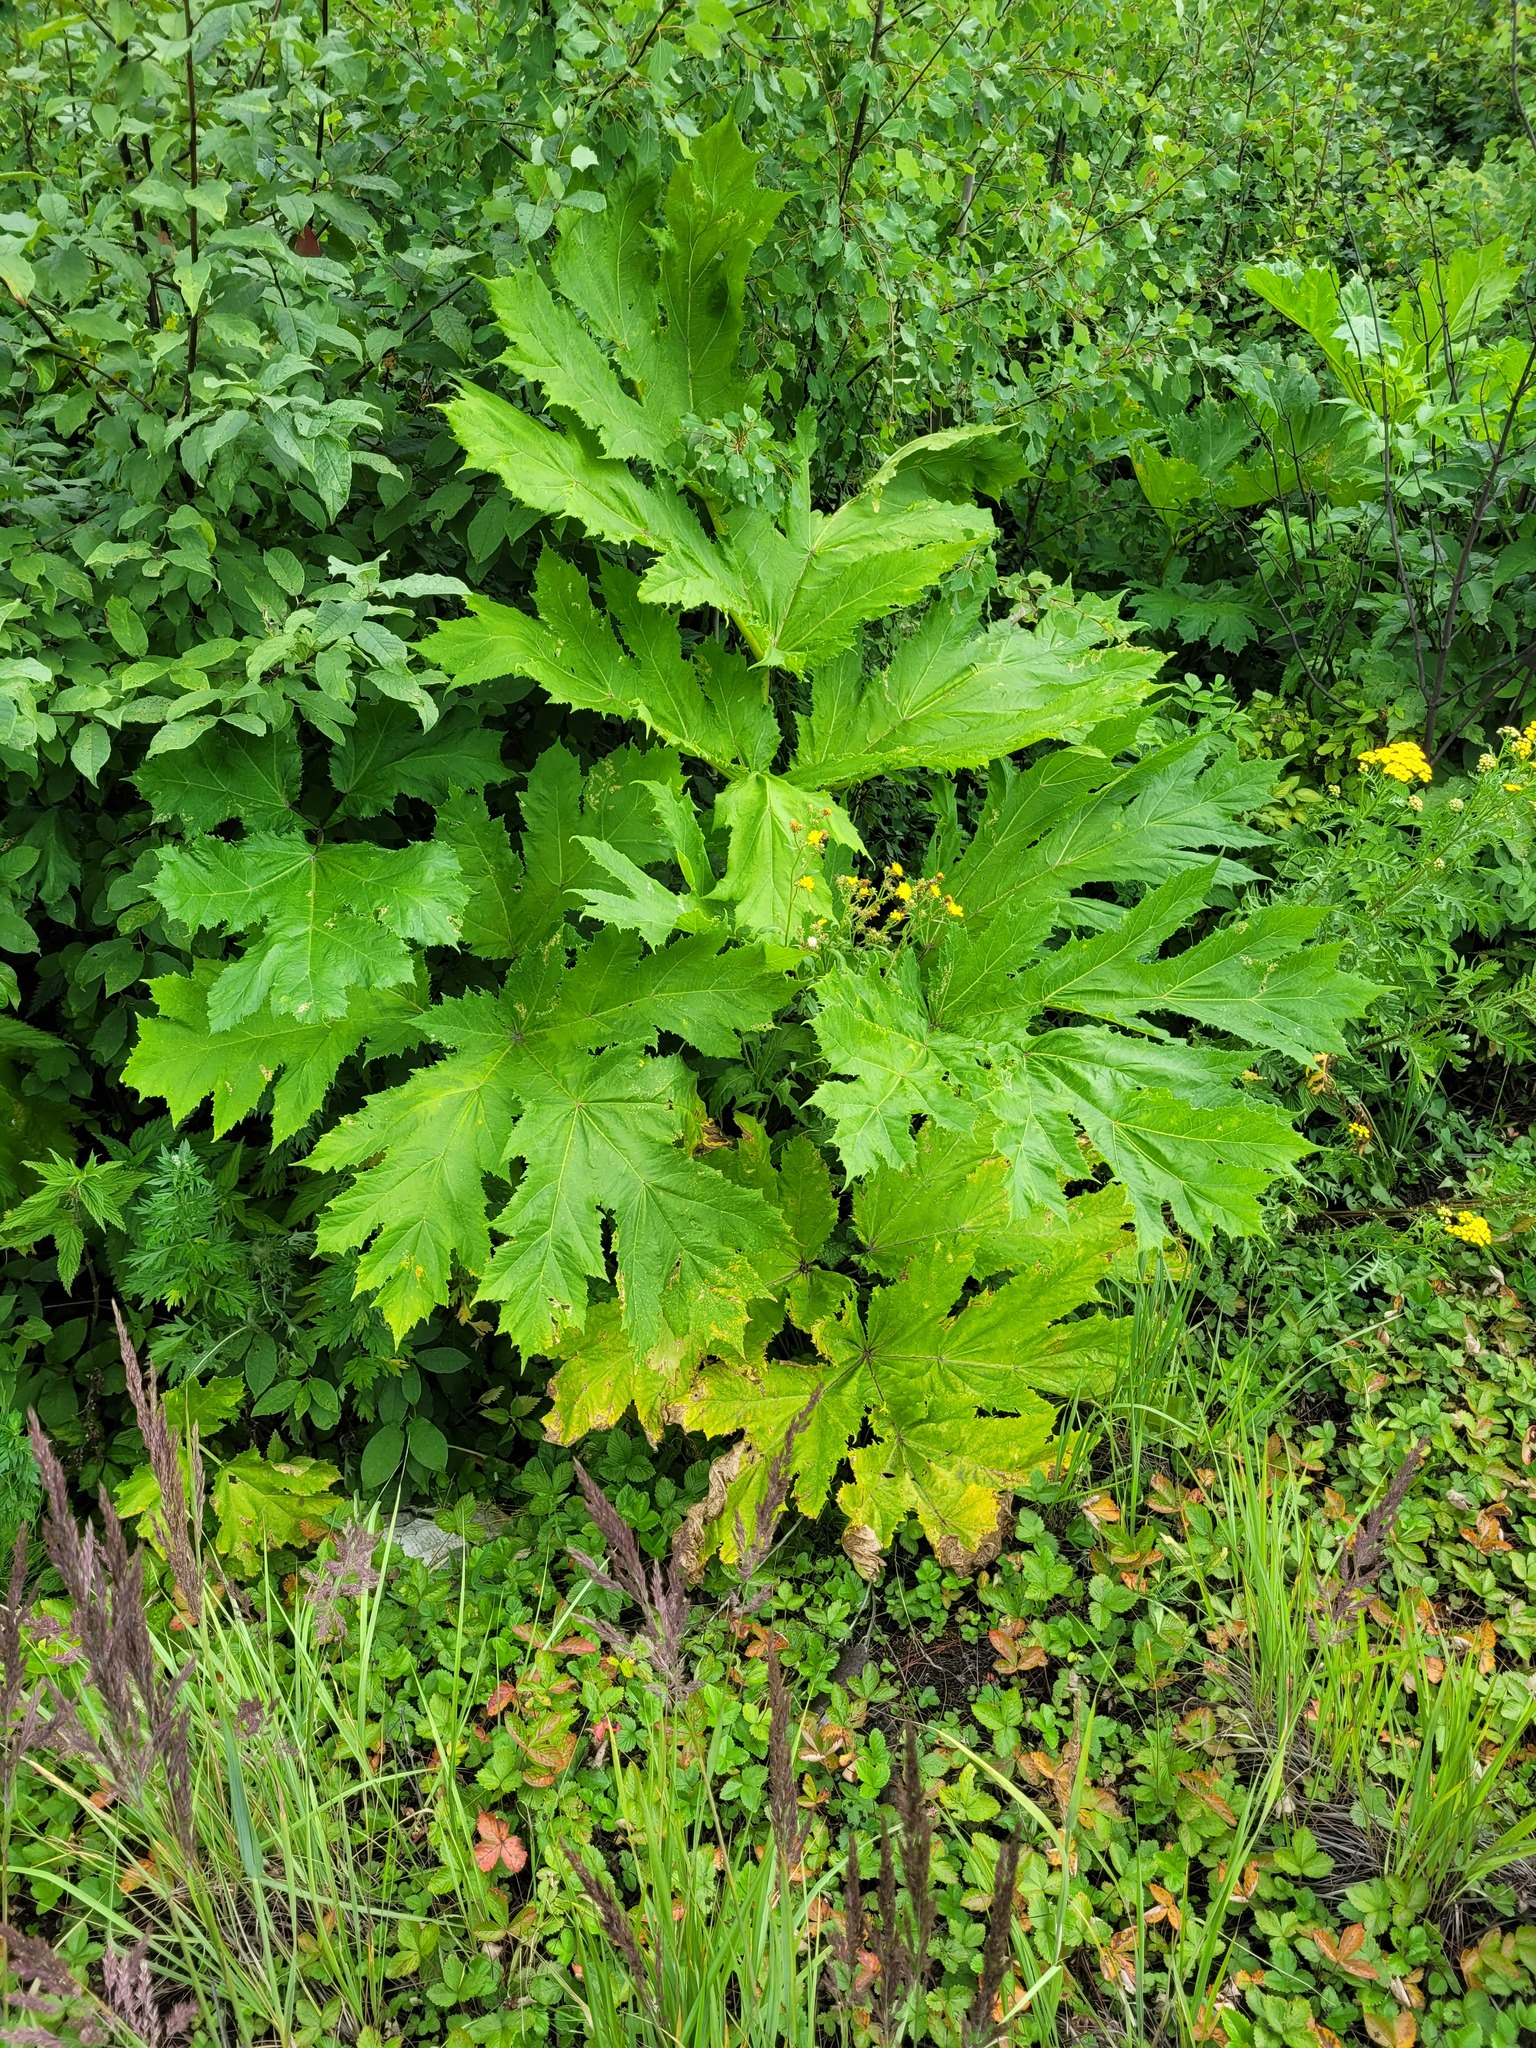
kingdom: Plantae
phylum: Tracheophyta
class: Magnoliopsida
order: Apiales
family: Apiaceae
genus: Heracleum
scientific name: Heracleum sosnowskyi
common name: Sosnowsky's hogweed
